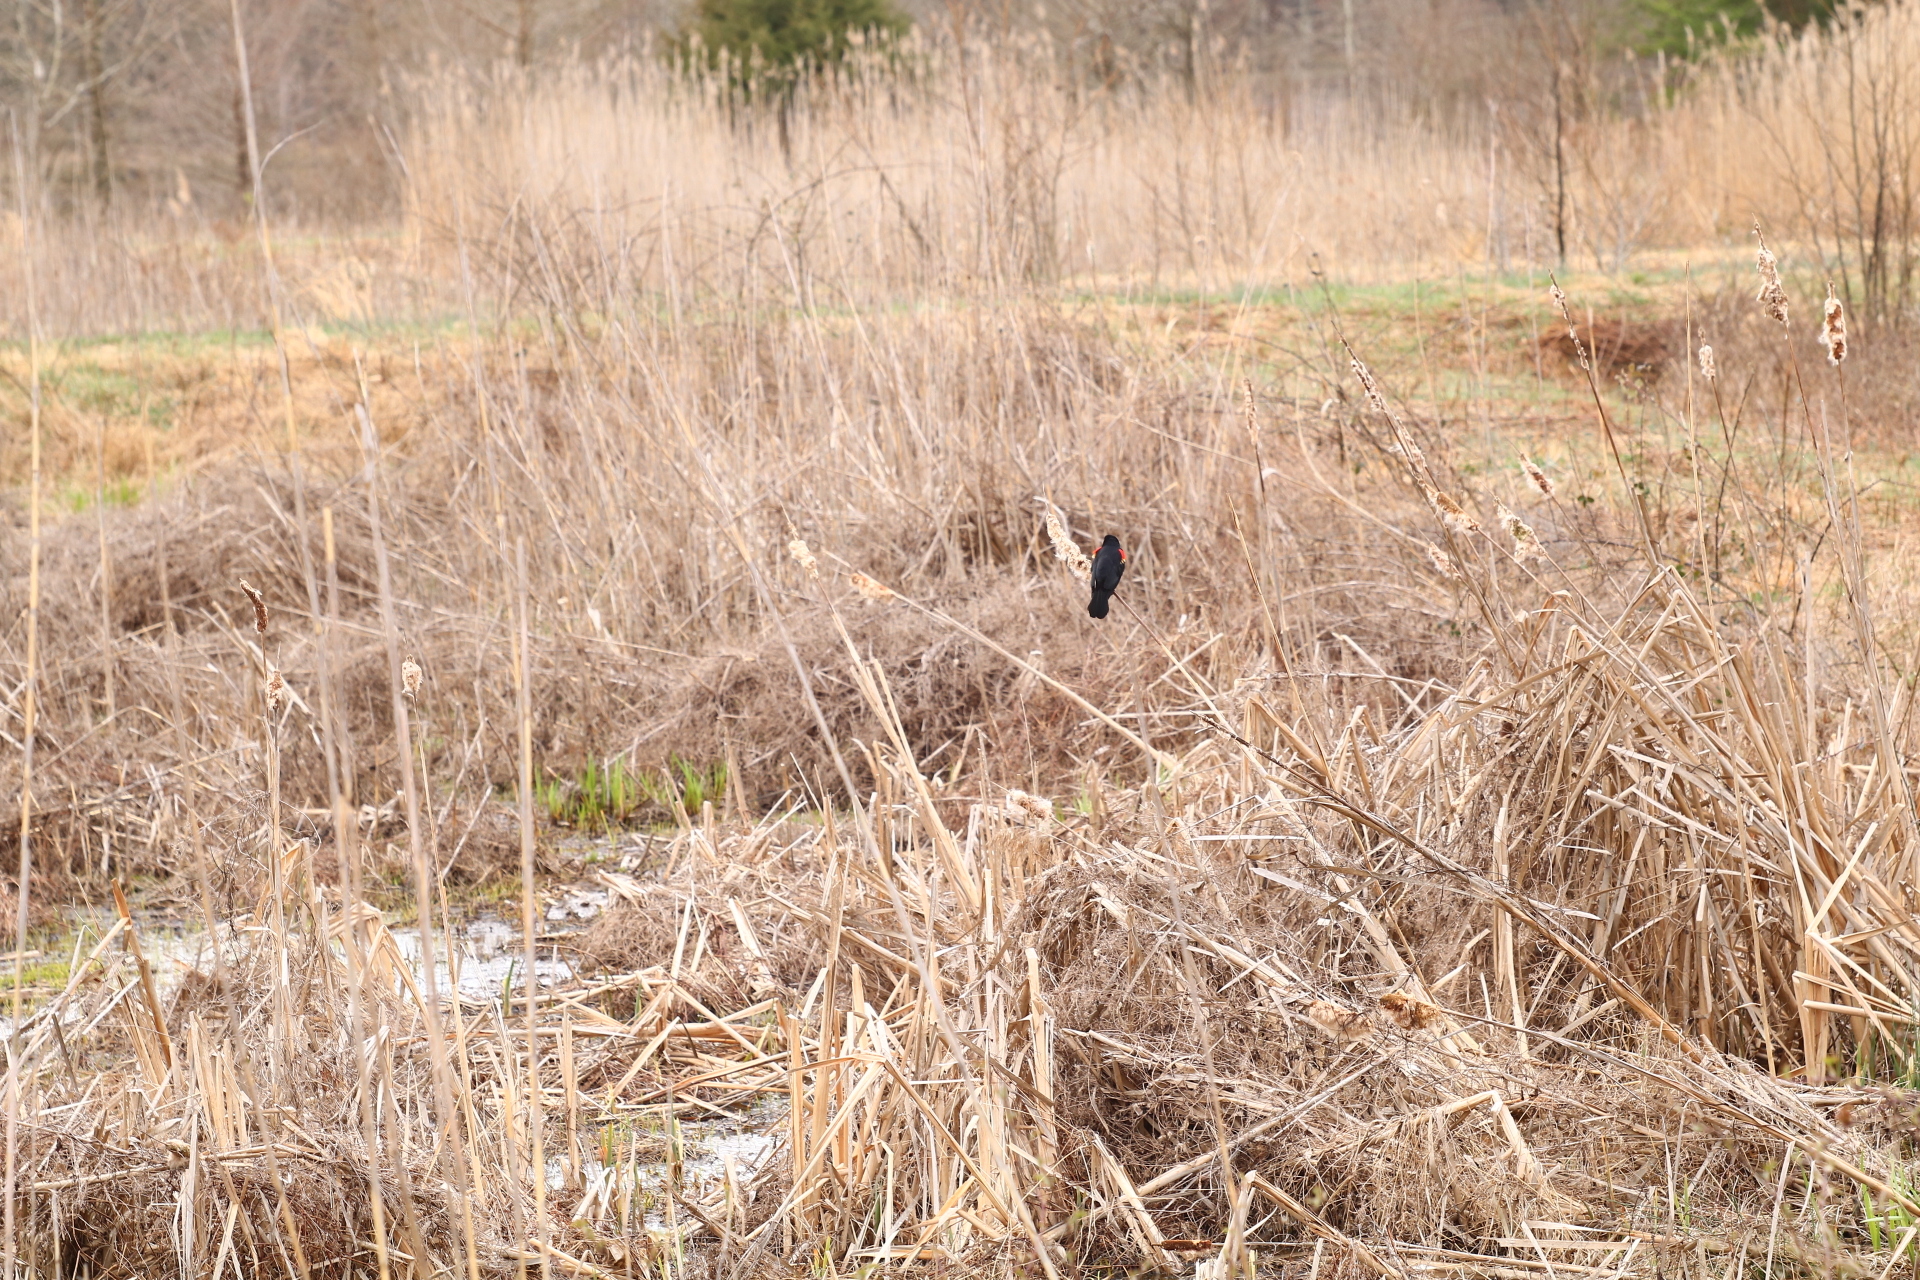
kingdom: Animalia
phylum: Chordata
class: Aves
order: Passeriformes
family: Icteridae
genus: Agelaius
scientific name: Agelaius phoeniceus
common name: Red-winged blackbird
